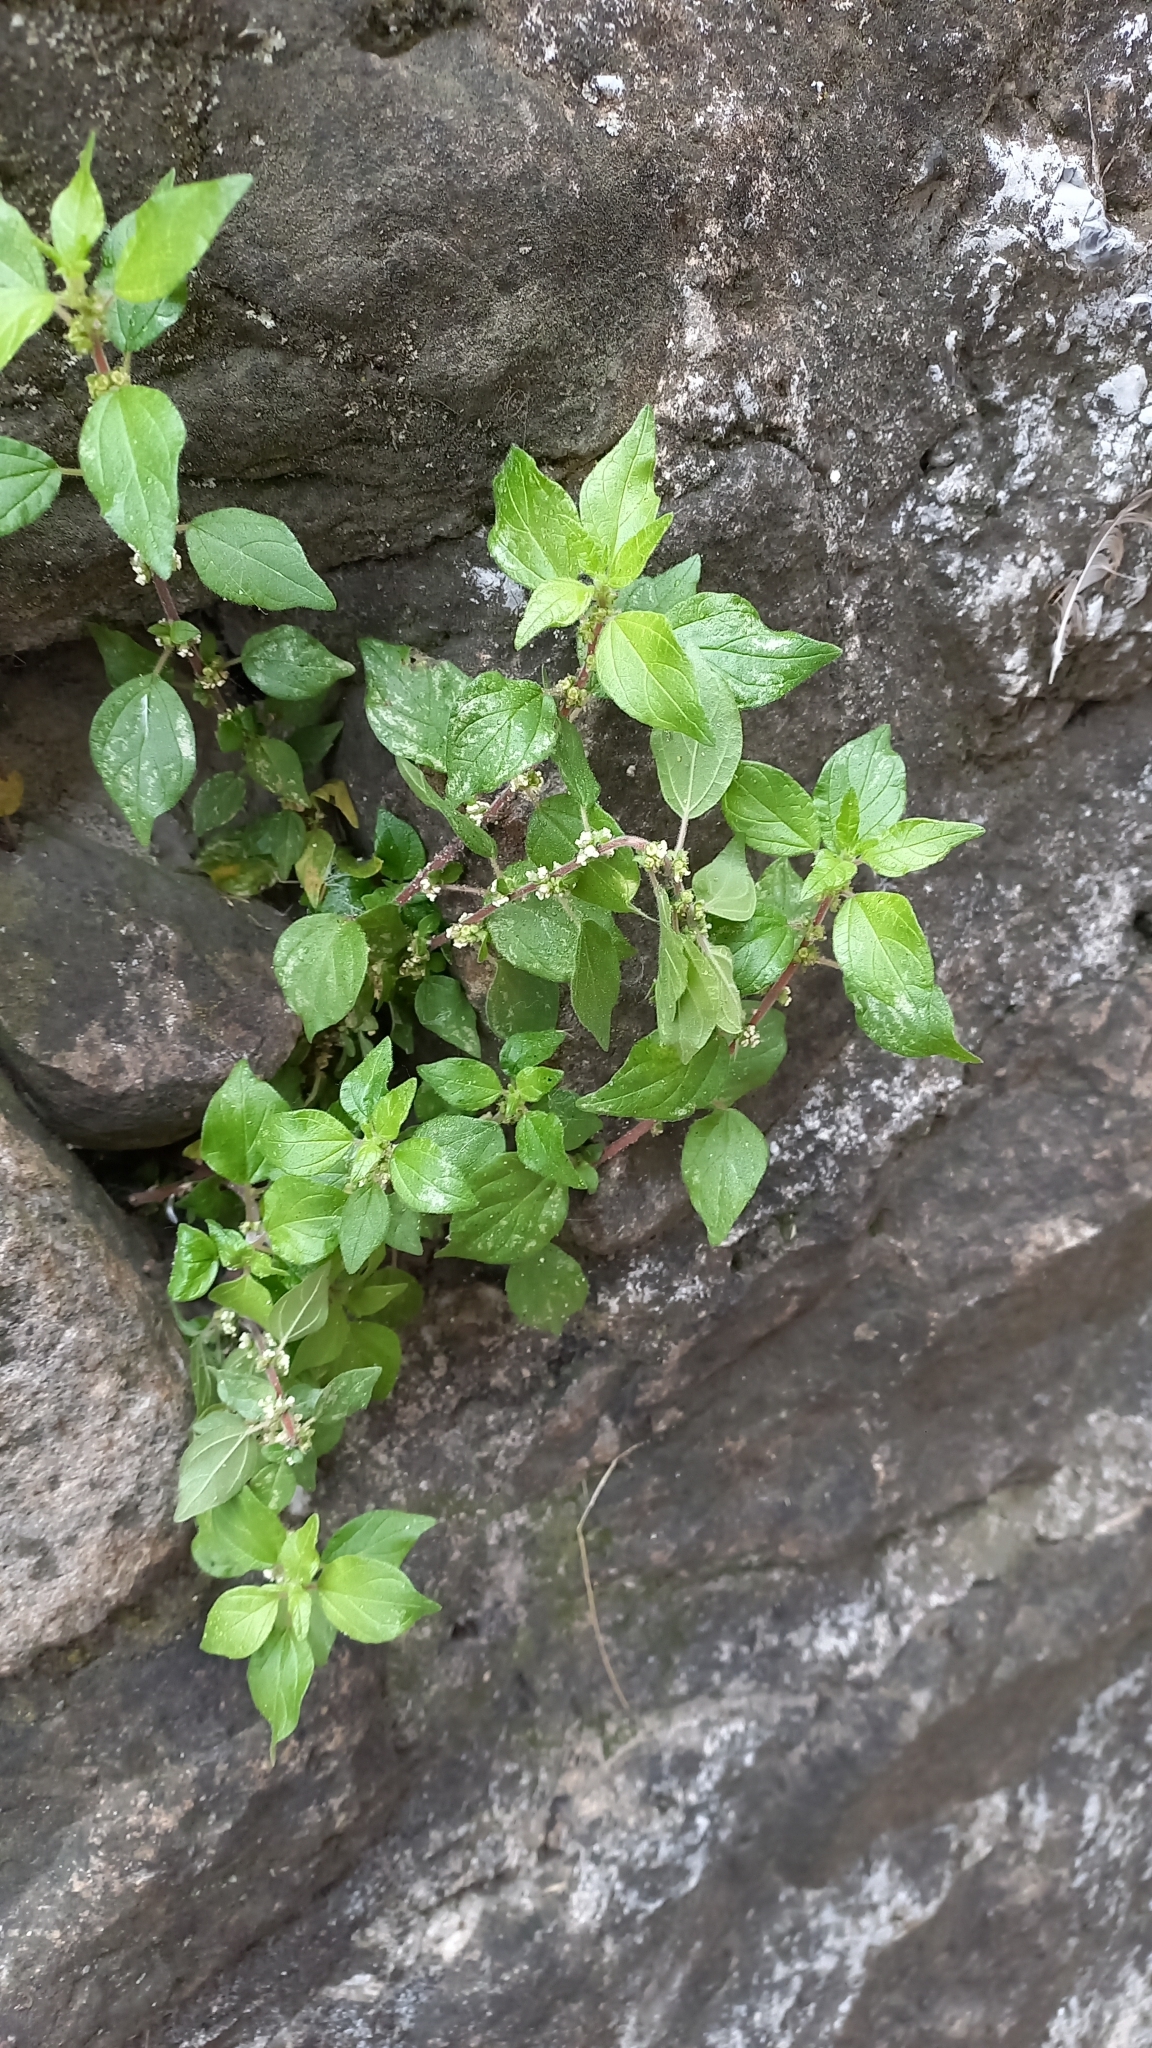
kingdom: Plantae
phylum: Tracheophyta
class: Magnoliopsida
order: Rosales
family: Urticaceae
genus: Parietaria
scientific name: Parietaria judaica
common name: Pellitory-of-the-wall
